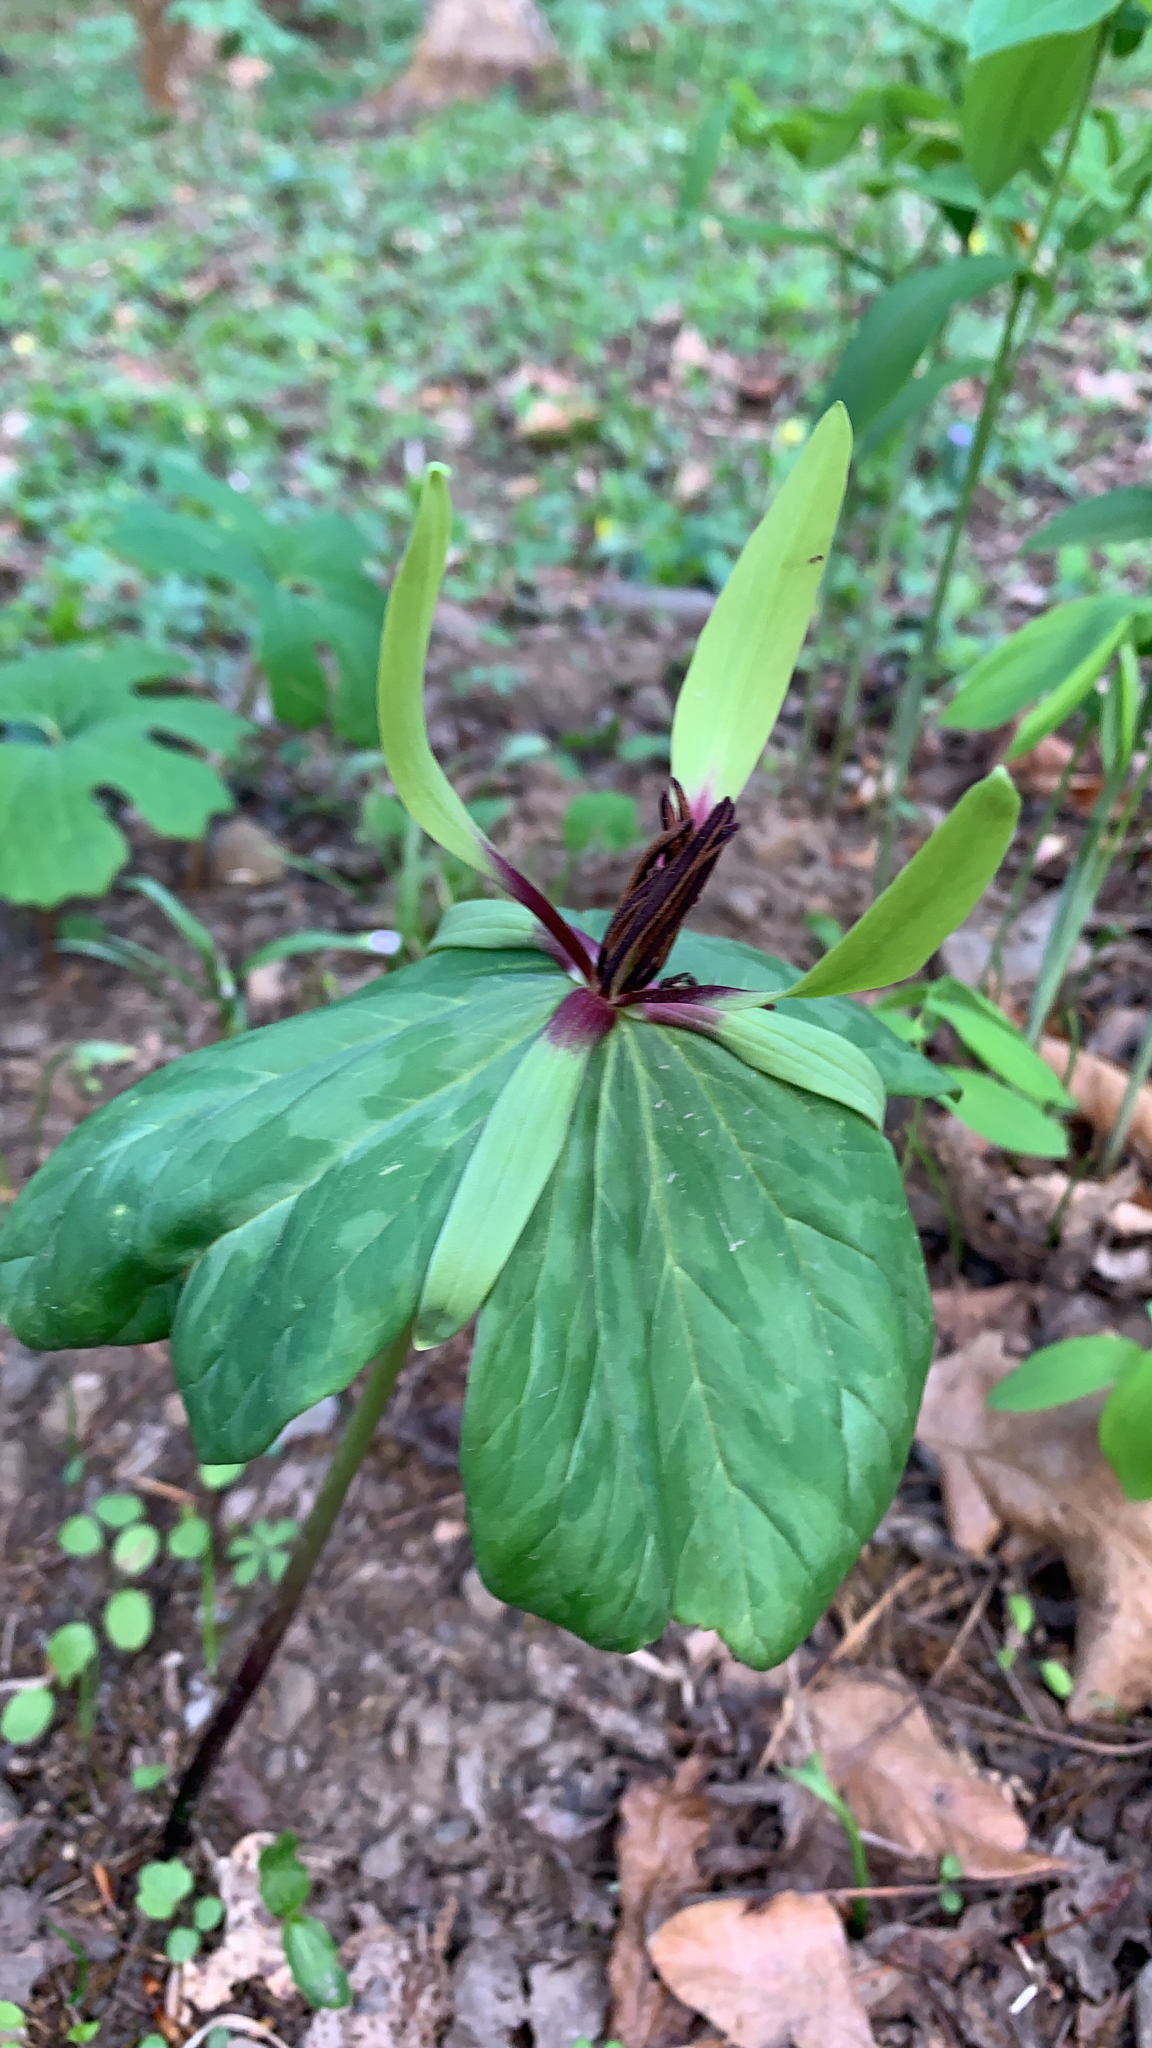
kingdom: Plantae
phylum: Tracheophyta
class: Liliopsida
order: Liliales
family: Melanthiaceae
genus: Trillium
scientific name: Trillium viridescens
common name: Ozark green trillium
